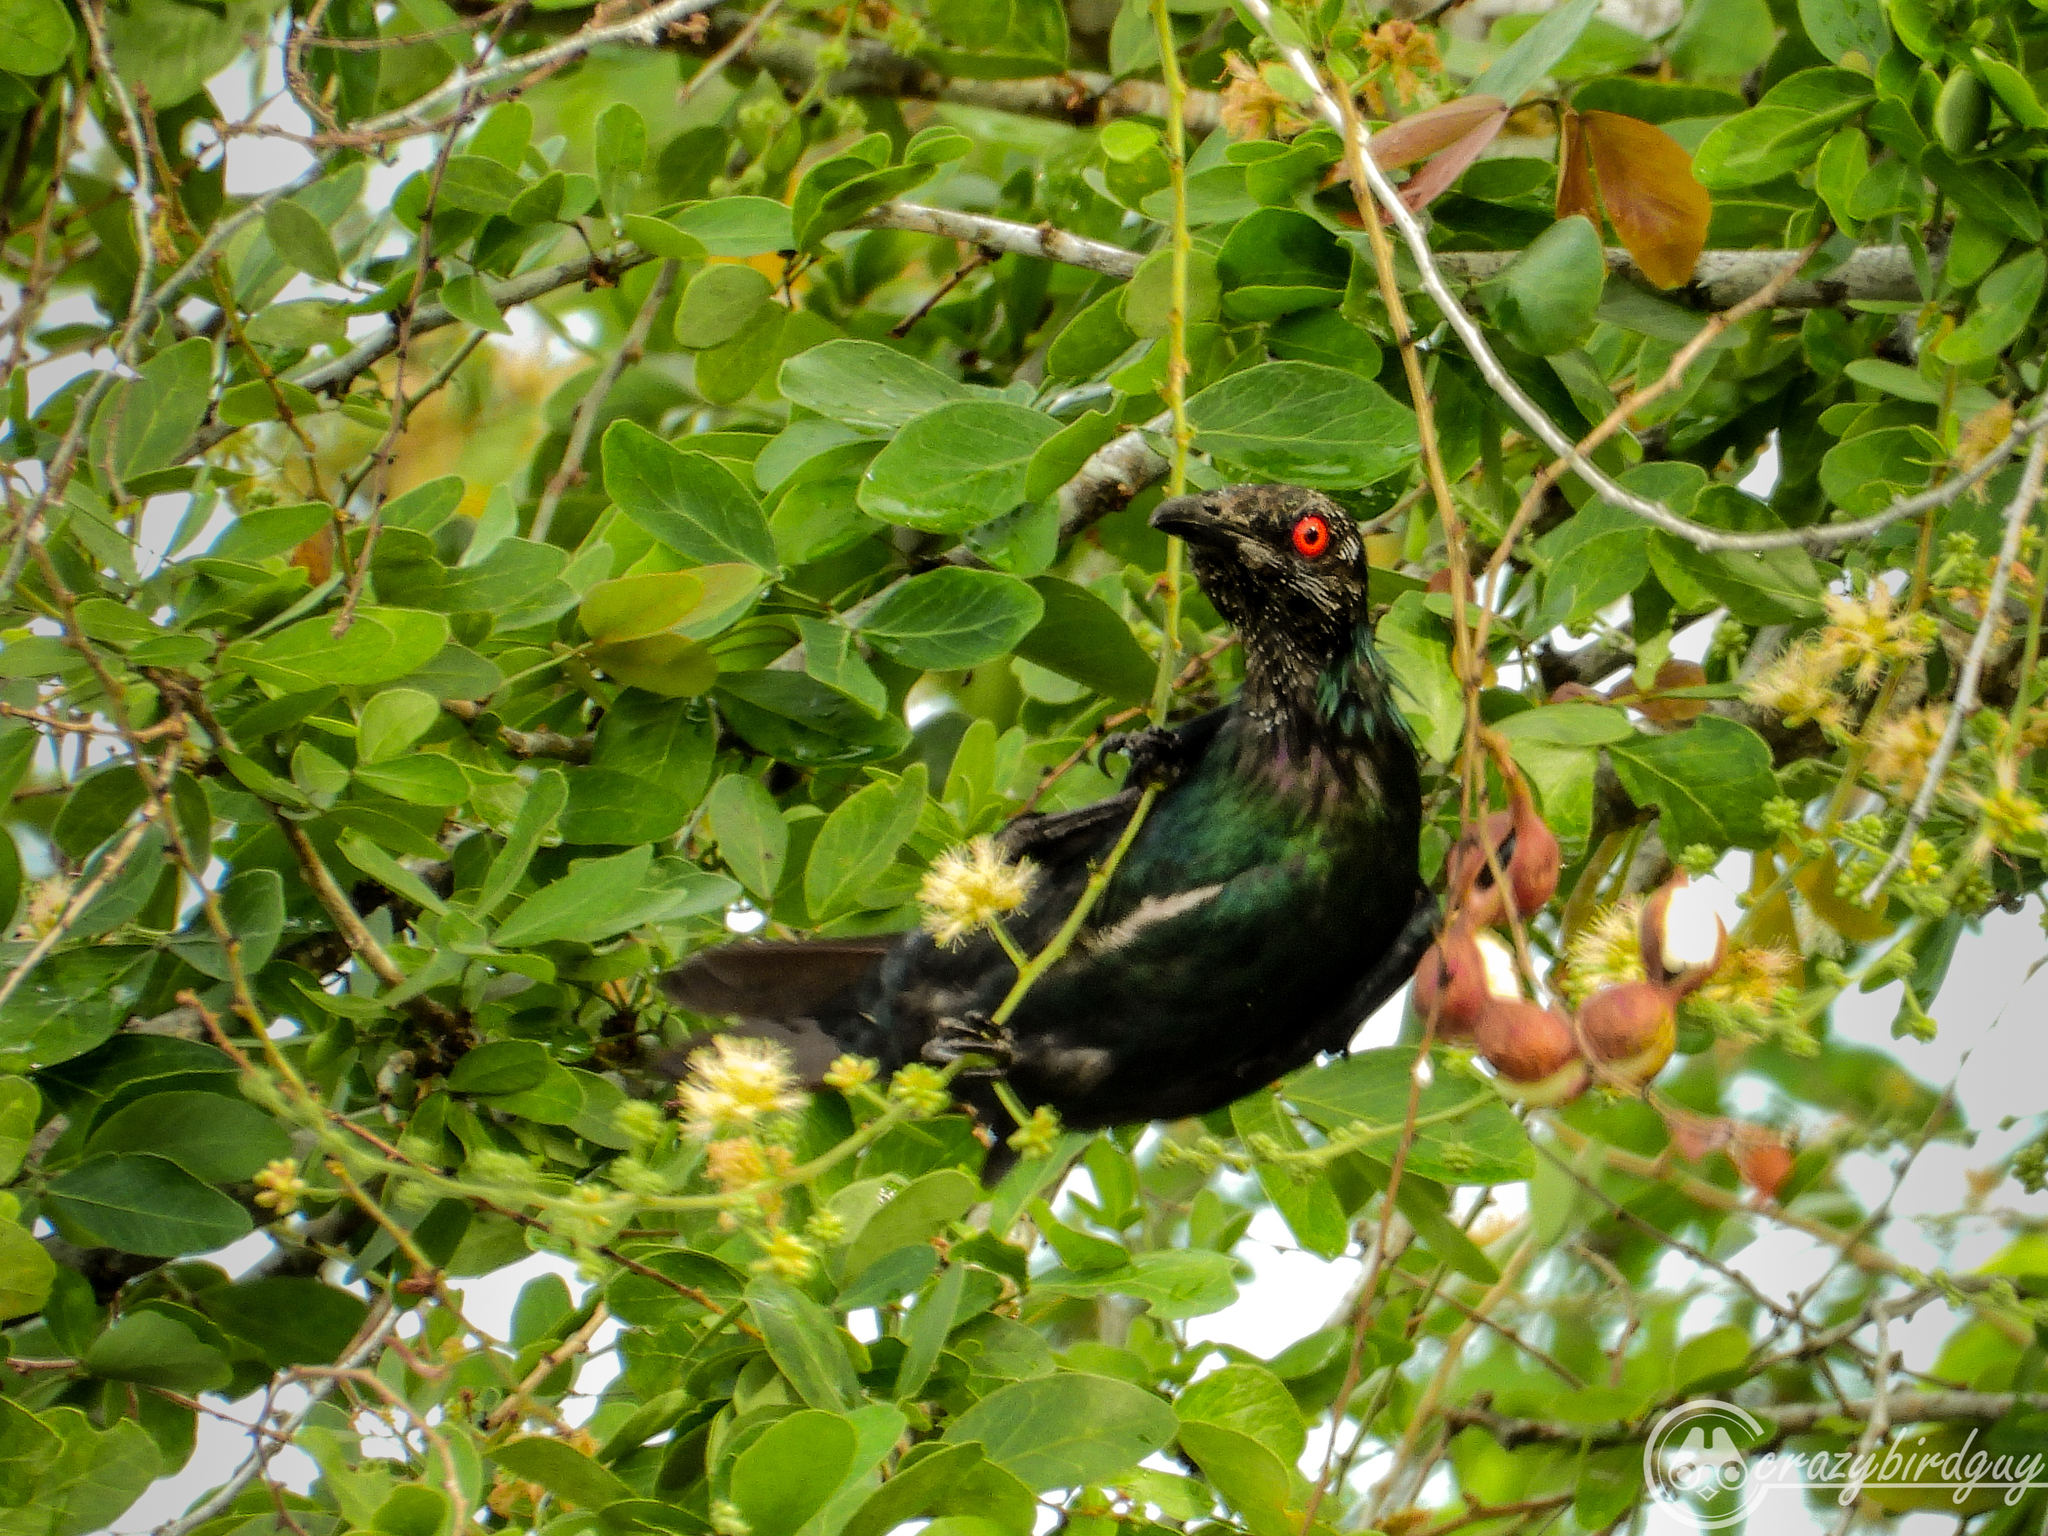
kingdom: Animalia
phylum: Chordata
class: Aves
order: Passeriformes
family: Sturnidae
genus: Aplonis
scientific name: Aplonis metallica
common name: Metallic starling
